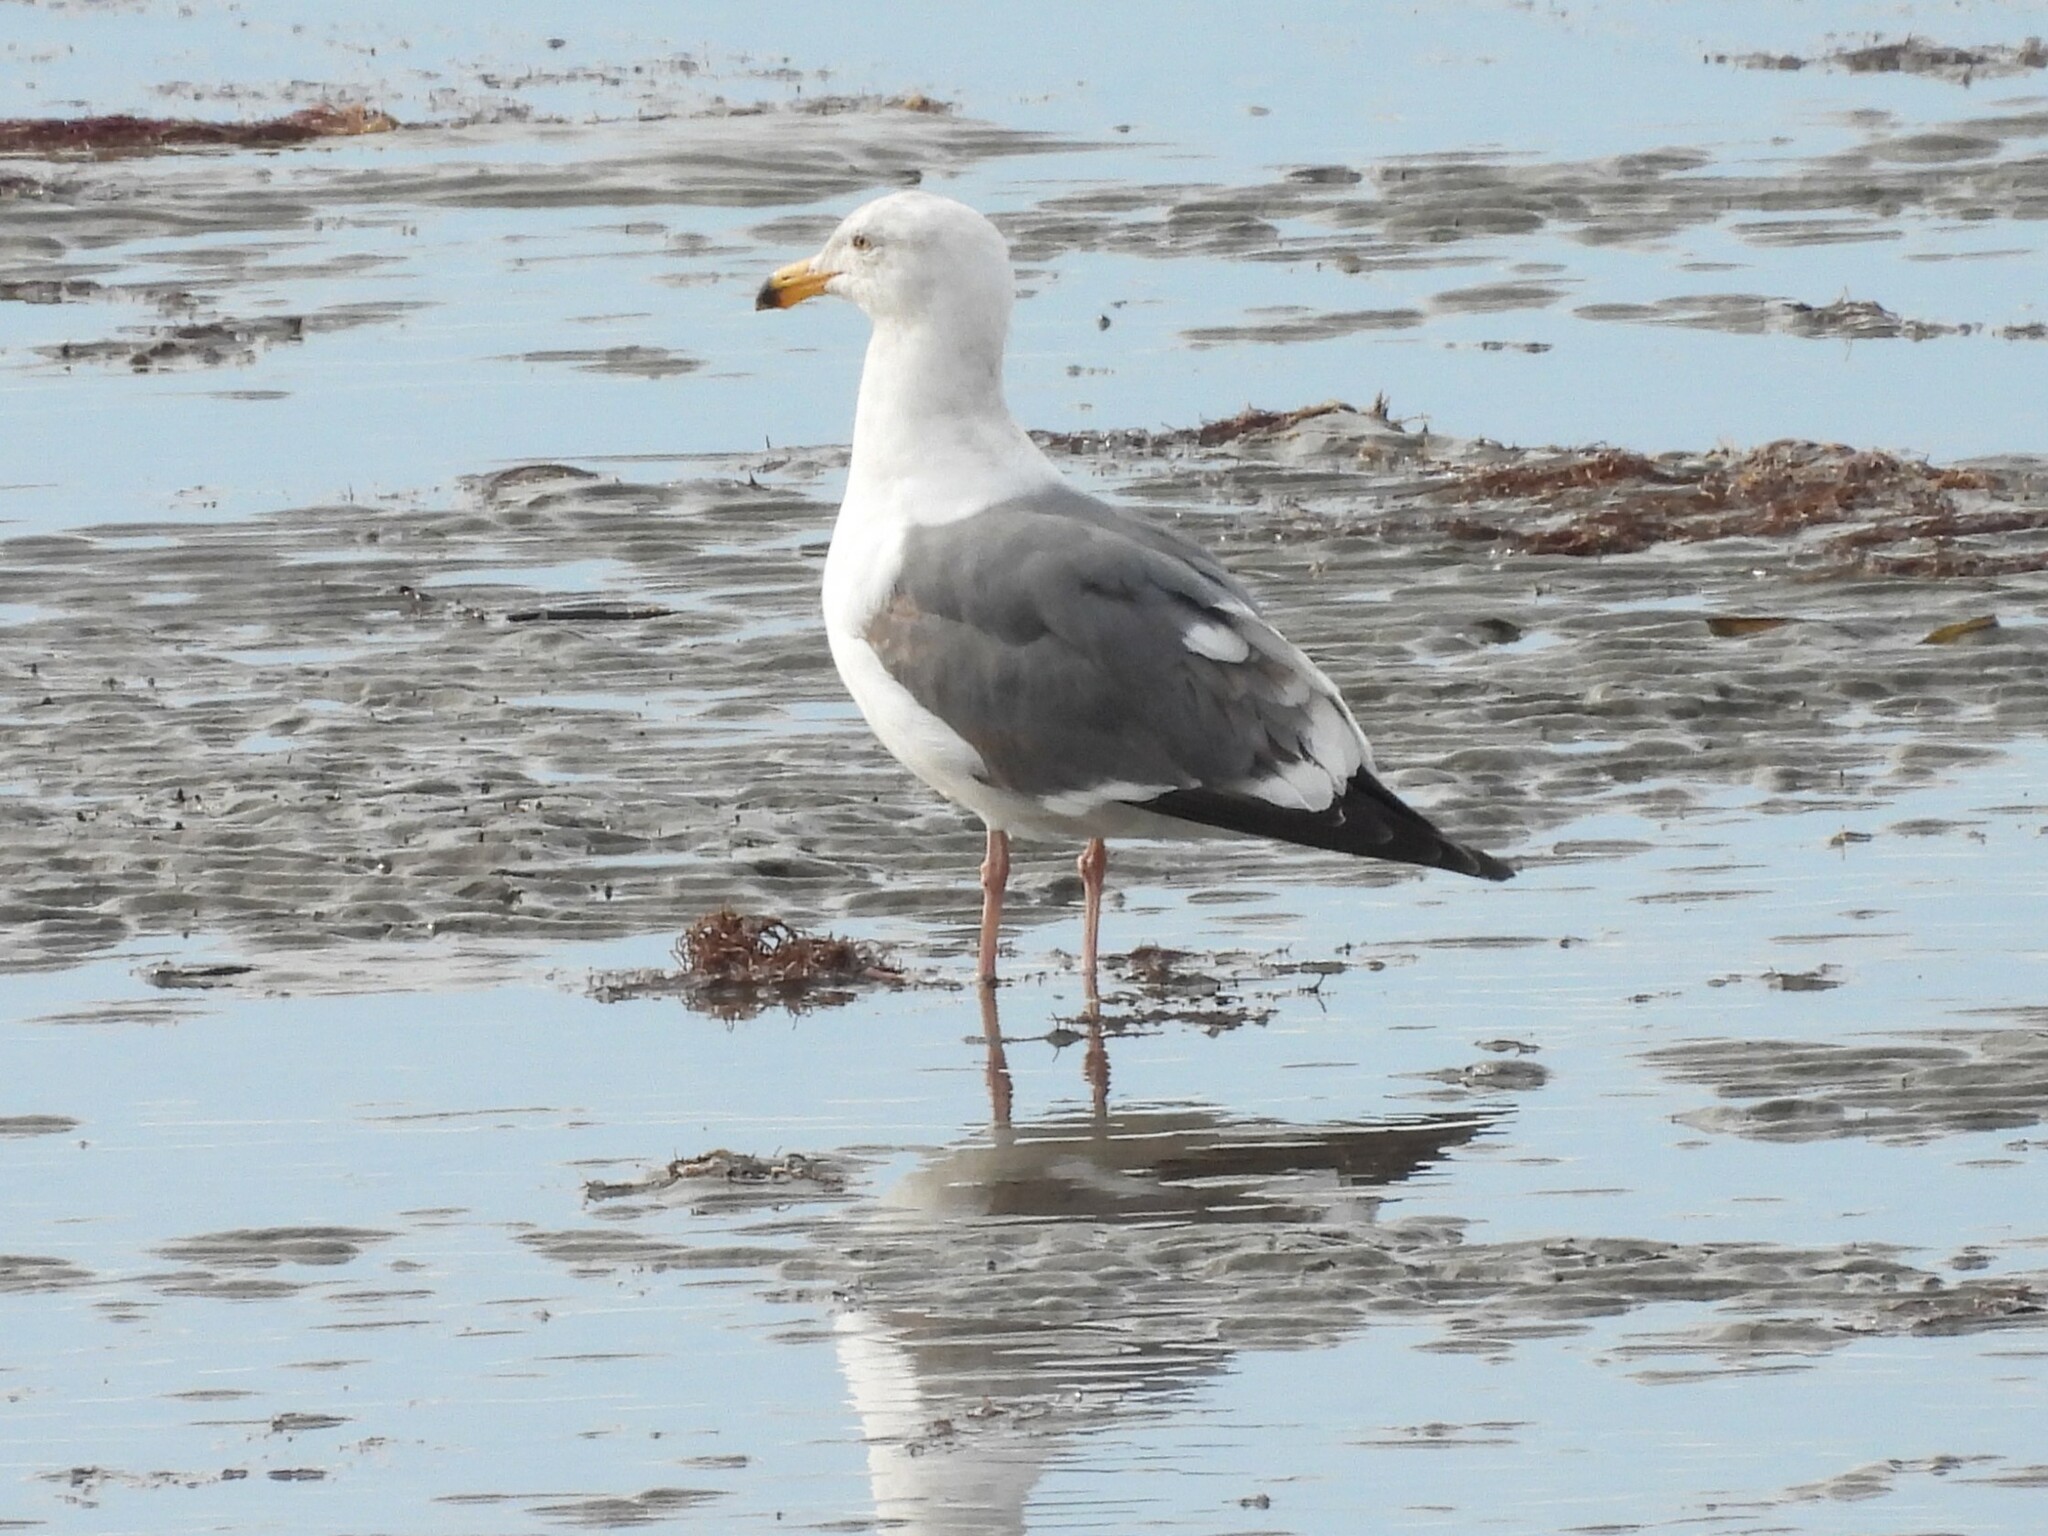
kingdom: Animalia
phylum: Chordata
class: Aves
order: Charadriiformes
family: Laridae
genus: Larus
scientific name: Larus occidentalis
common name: Western gull
